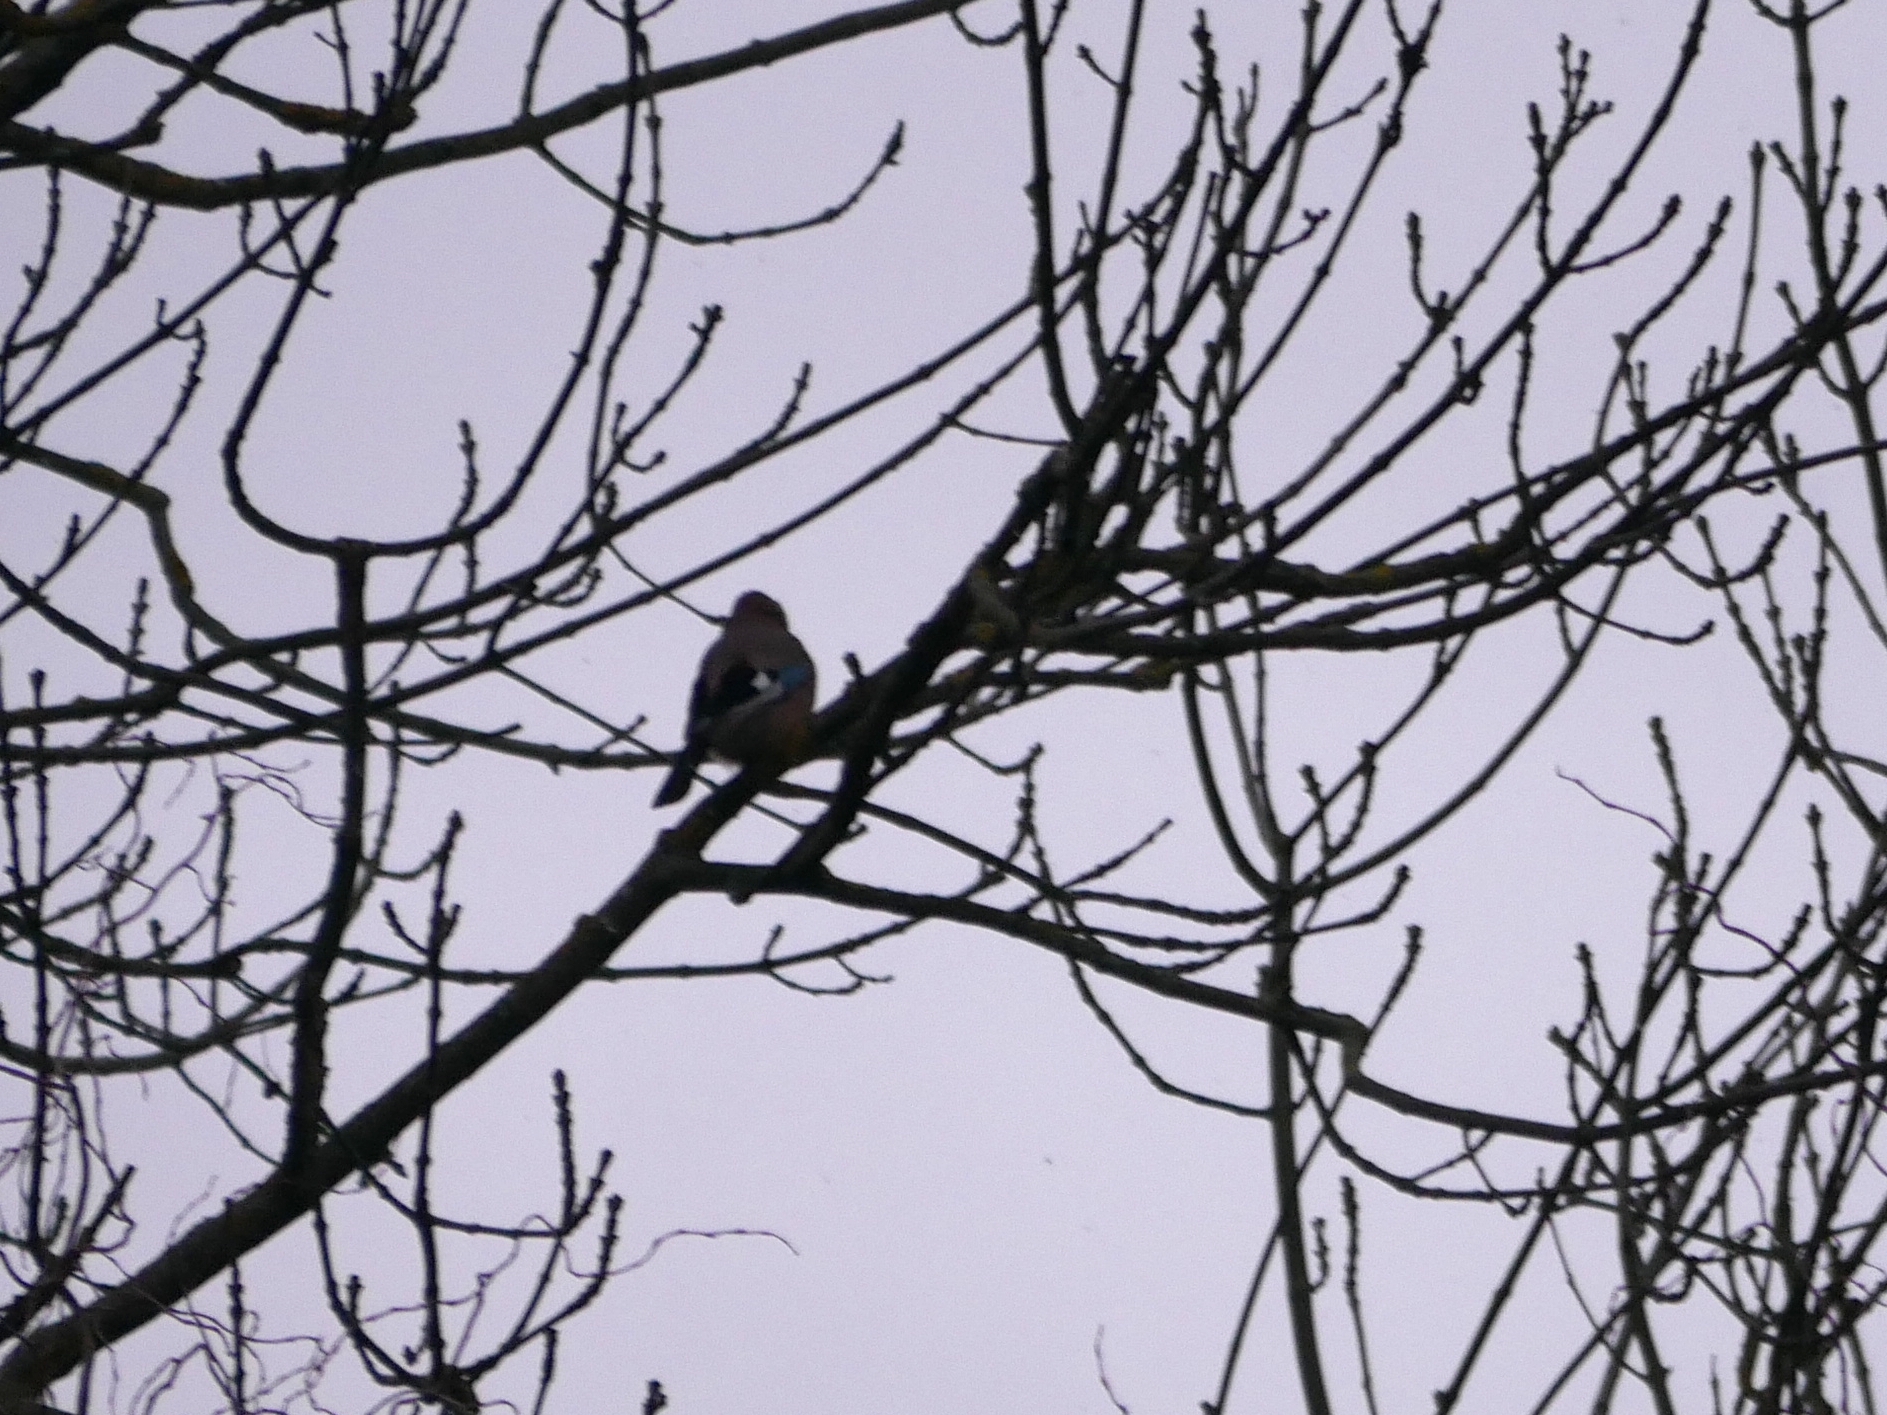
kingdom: Animalia
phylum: Chordata
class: Aves
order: Passeriformes
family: Corvidae
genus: Garrulus
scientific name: Garrulus glandarius
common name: Eurasian jay
